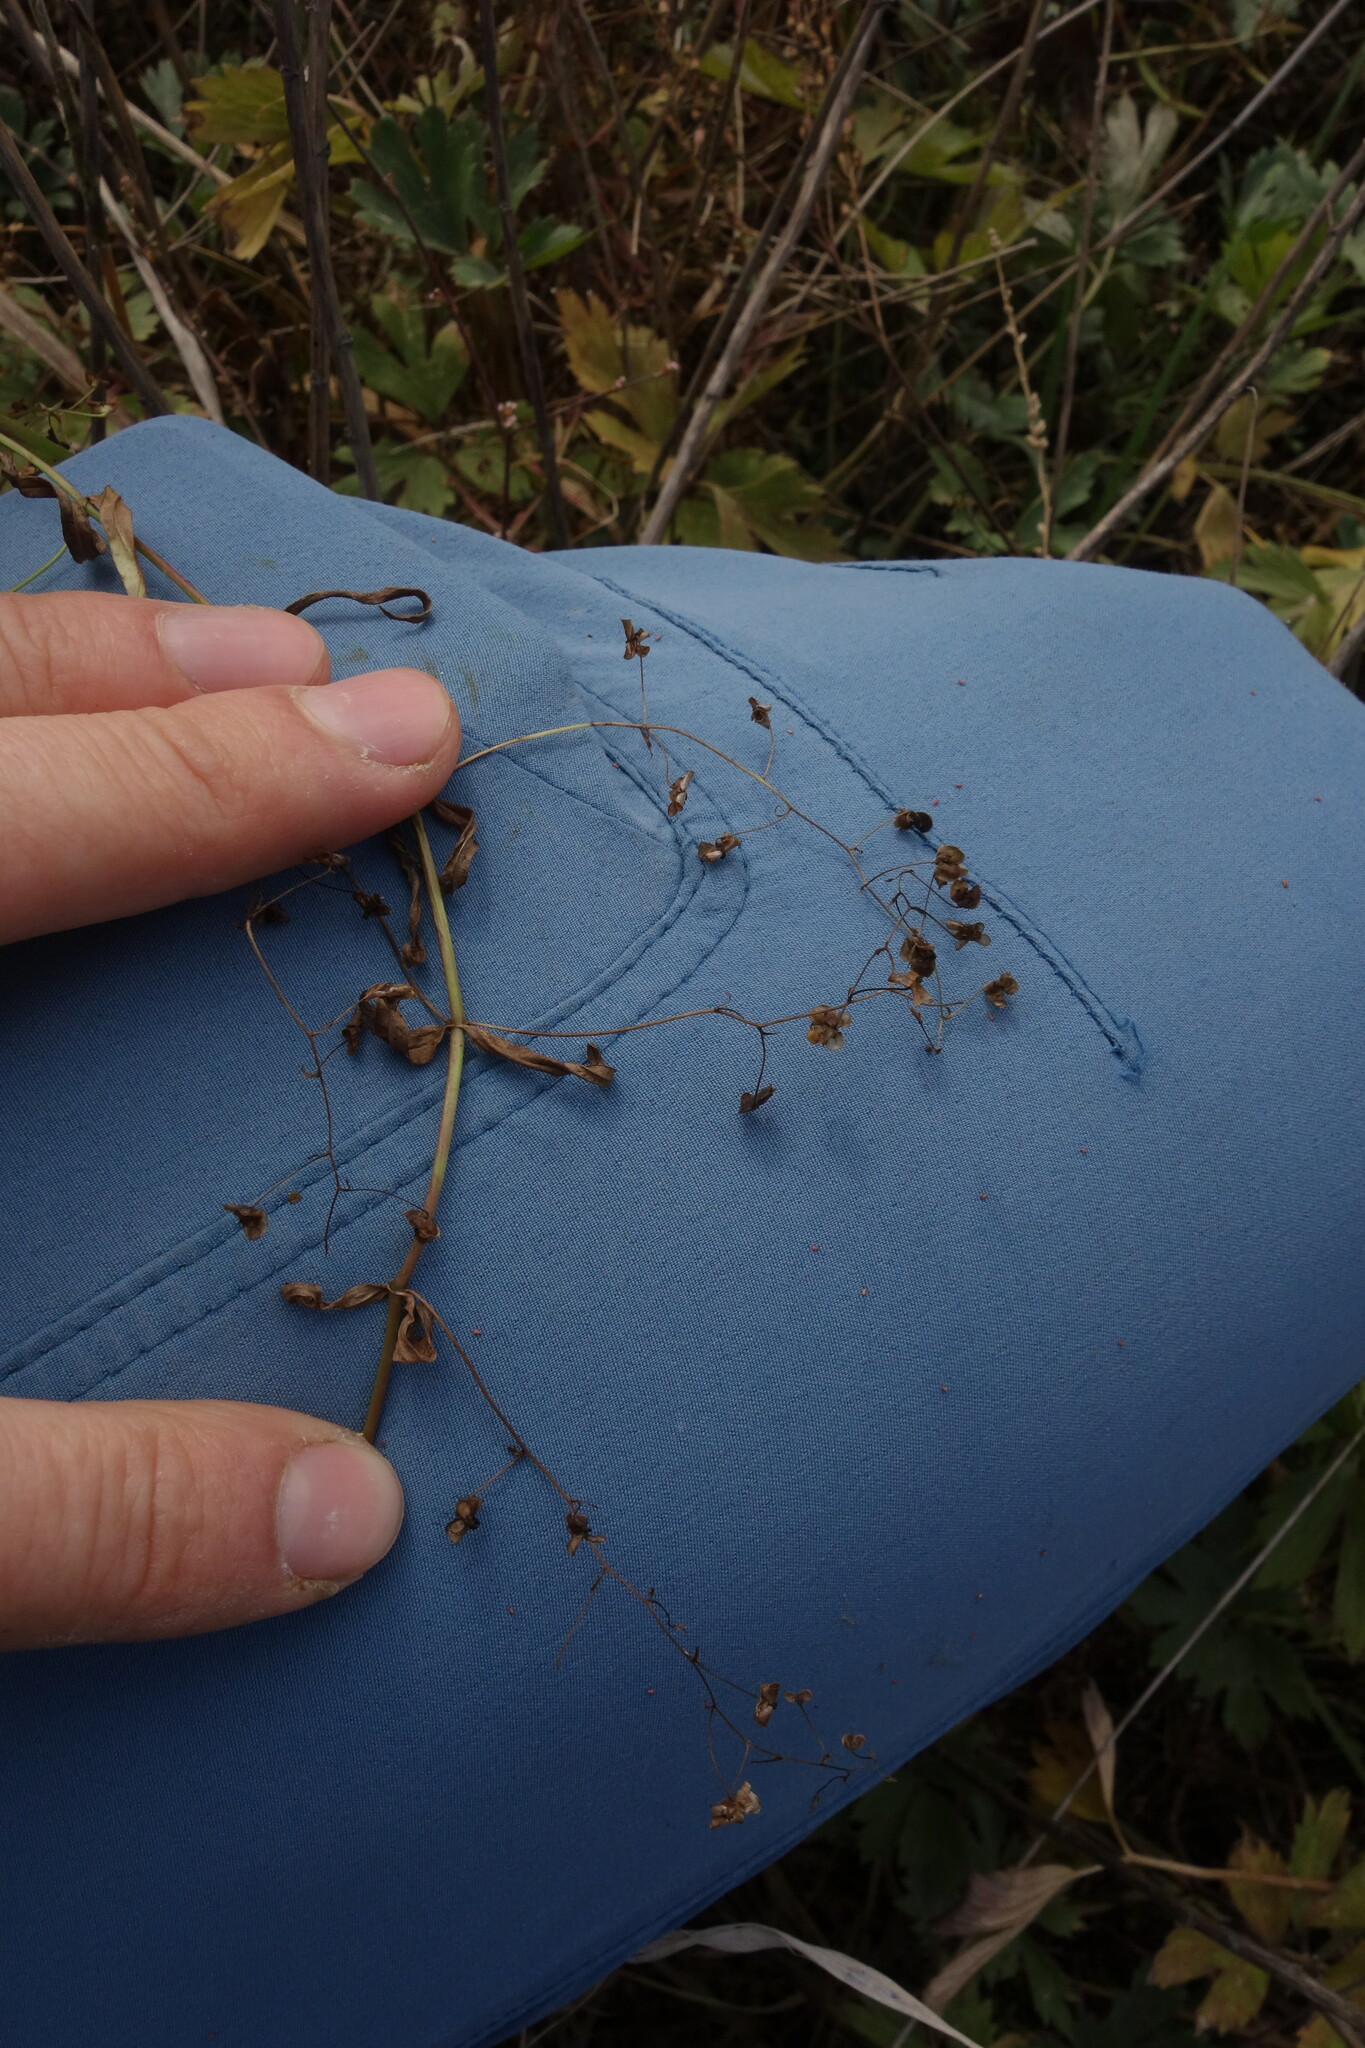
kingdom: Plantae
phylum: Tracheophyta
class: Magnoliopsida
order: Lamiales
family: Plantaginaceae
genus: Veronica
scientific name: Veronica scutellata
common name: Marsh speedwell
